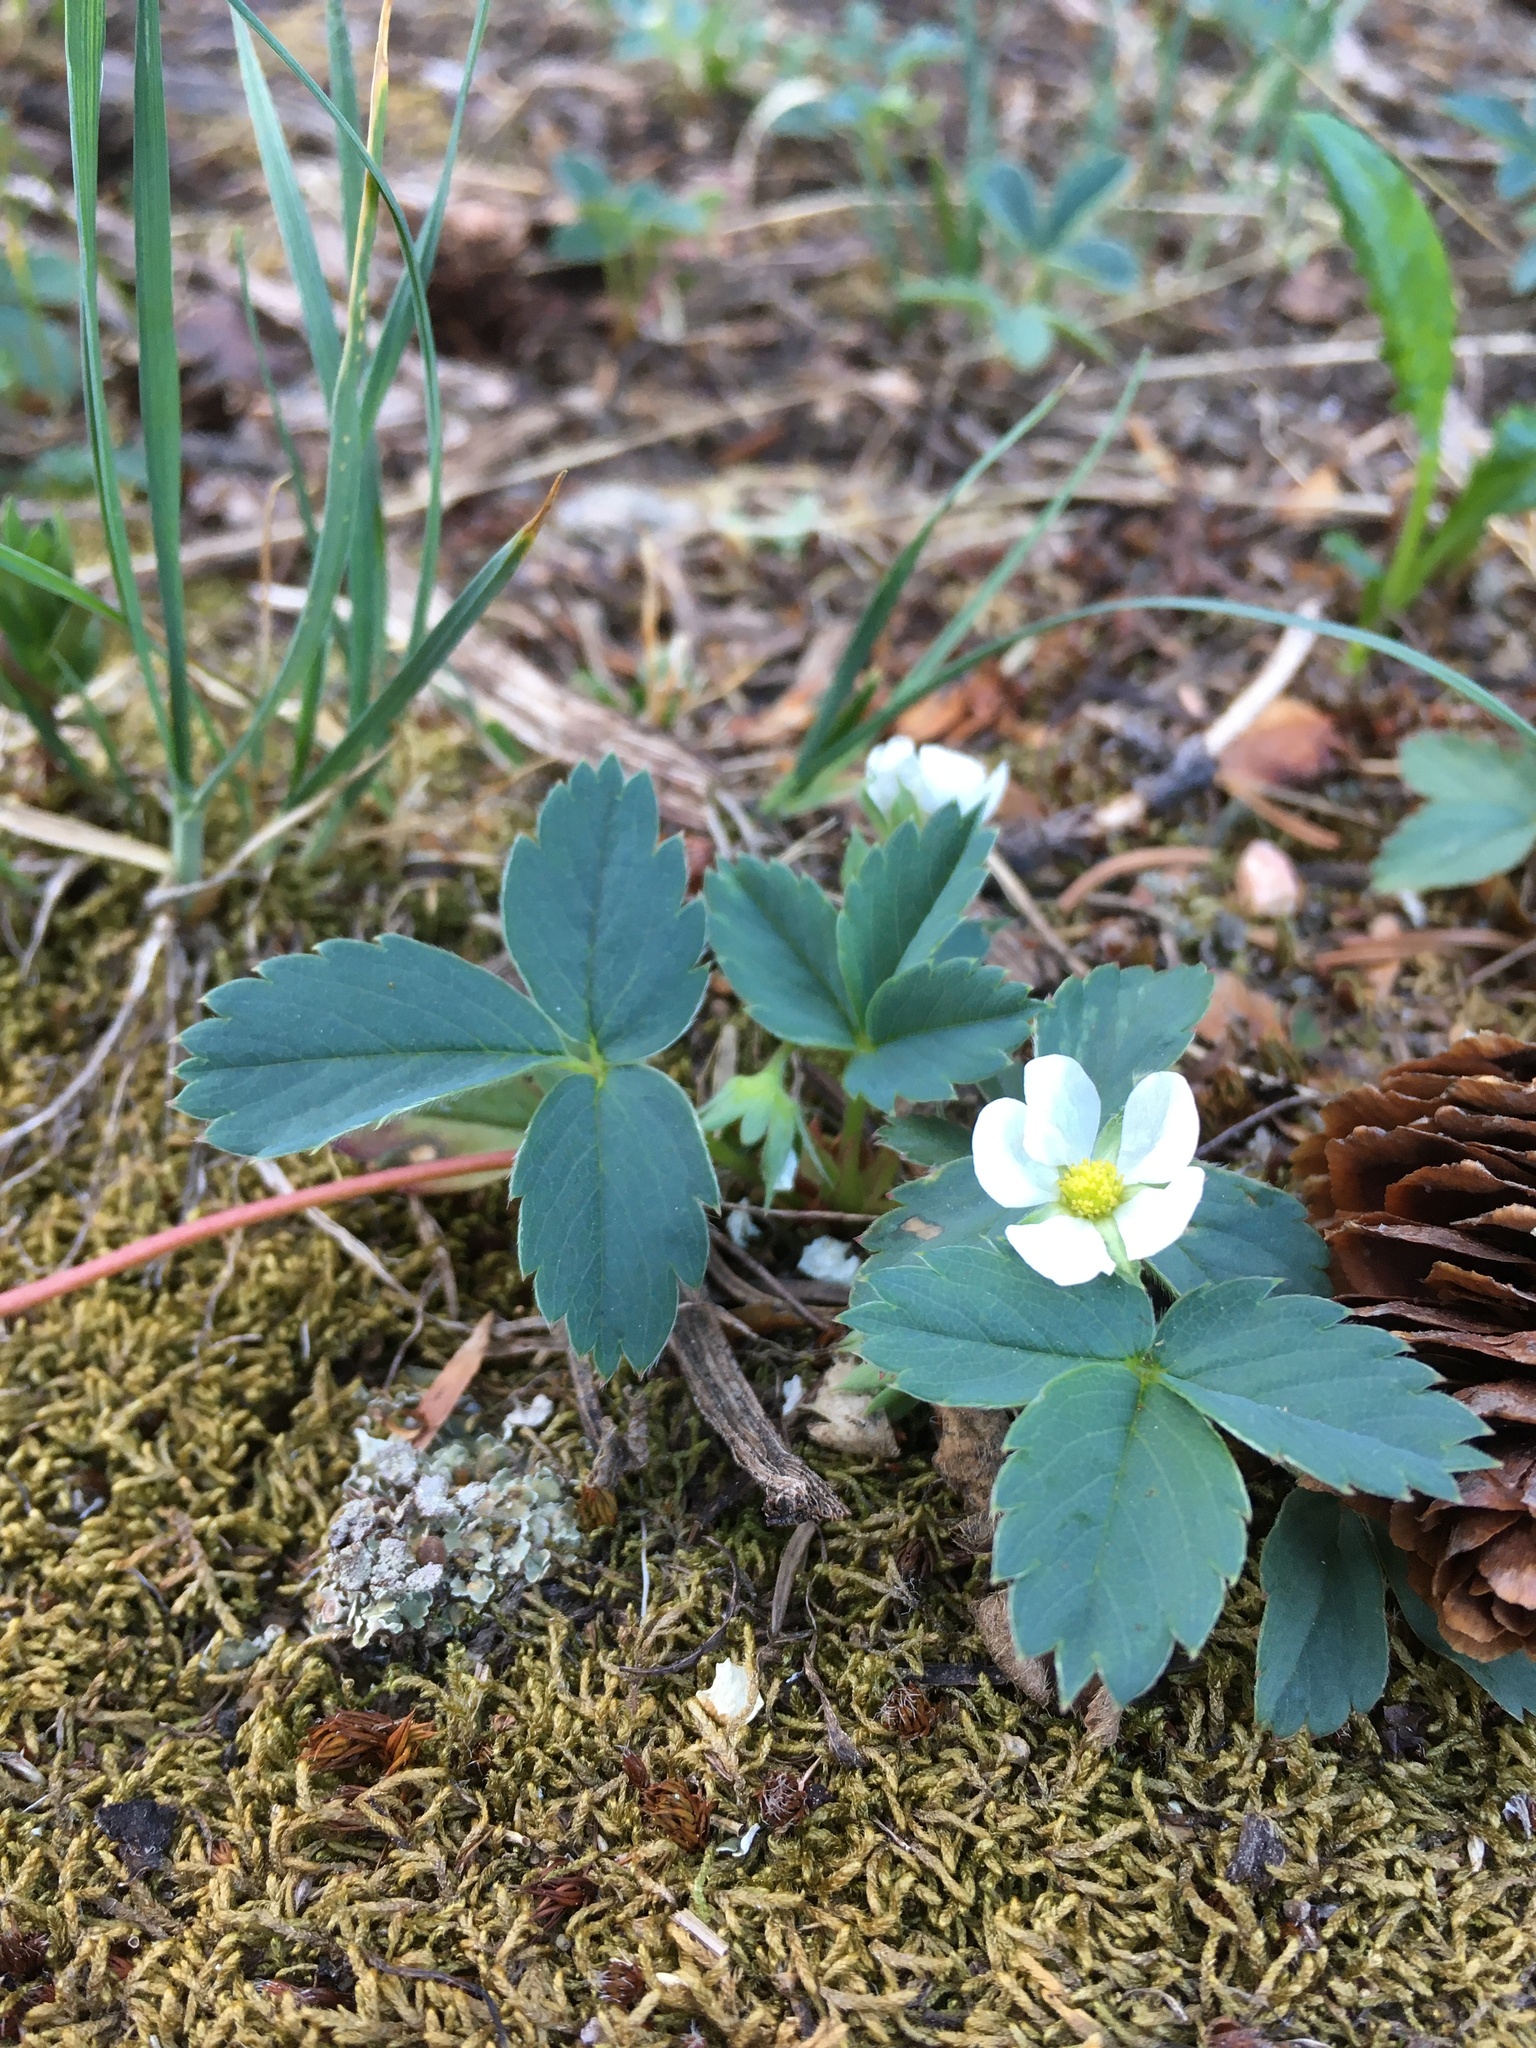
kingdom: Plantae
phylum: Tracheophyta
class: Magnoliopsida
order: Rosales
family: Rosaceae
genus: Fragaria
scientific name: Fragaria virginiana
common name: Thickleaved wild strawberry
